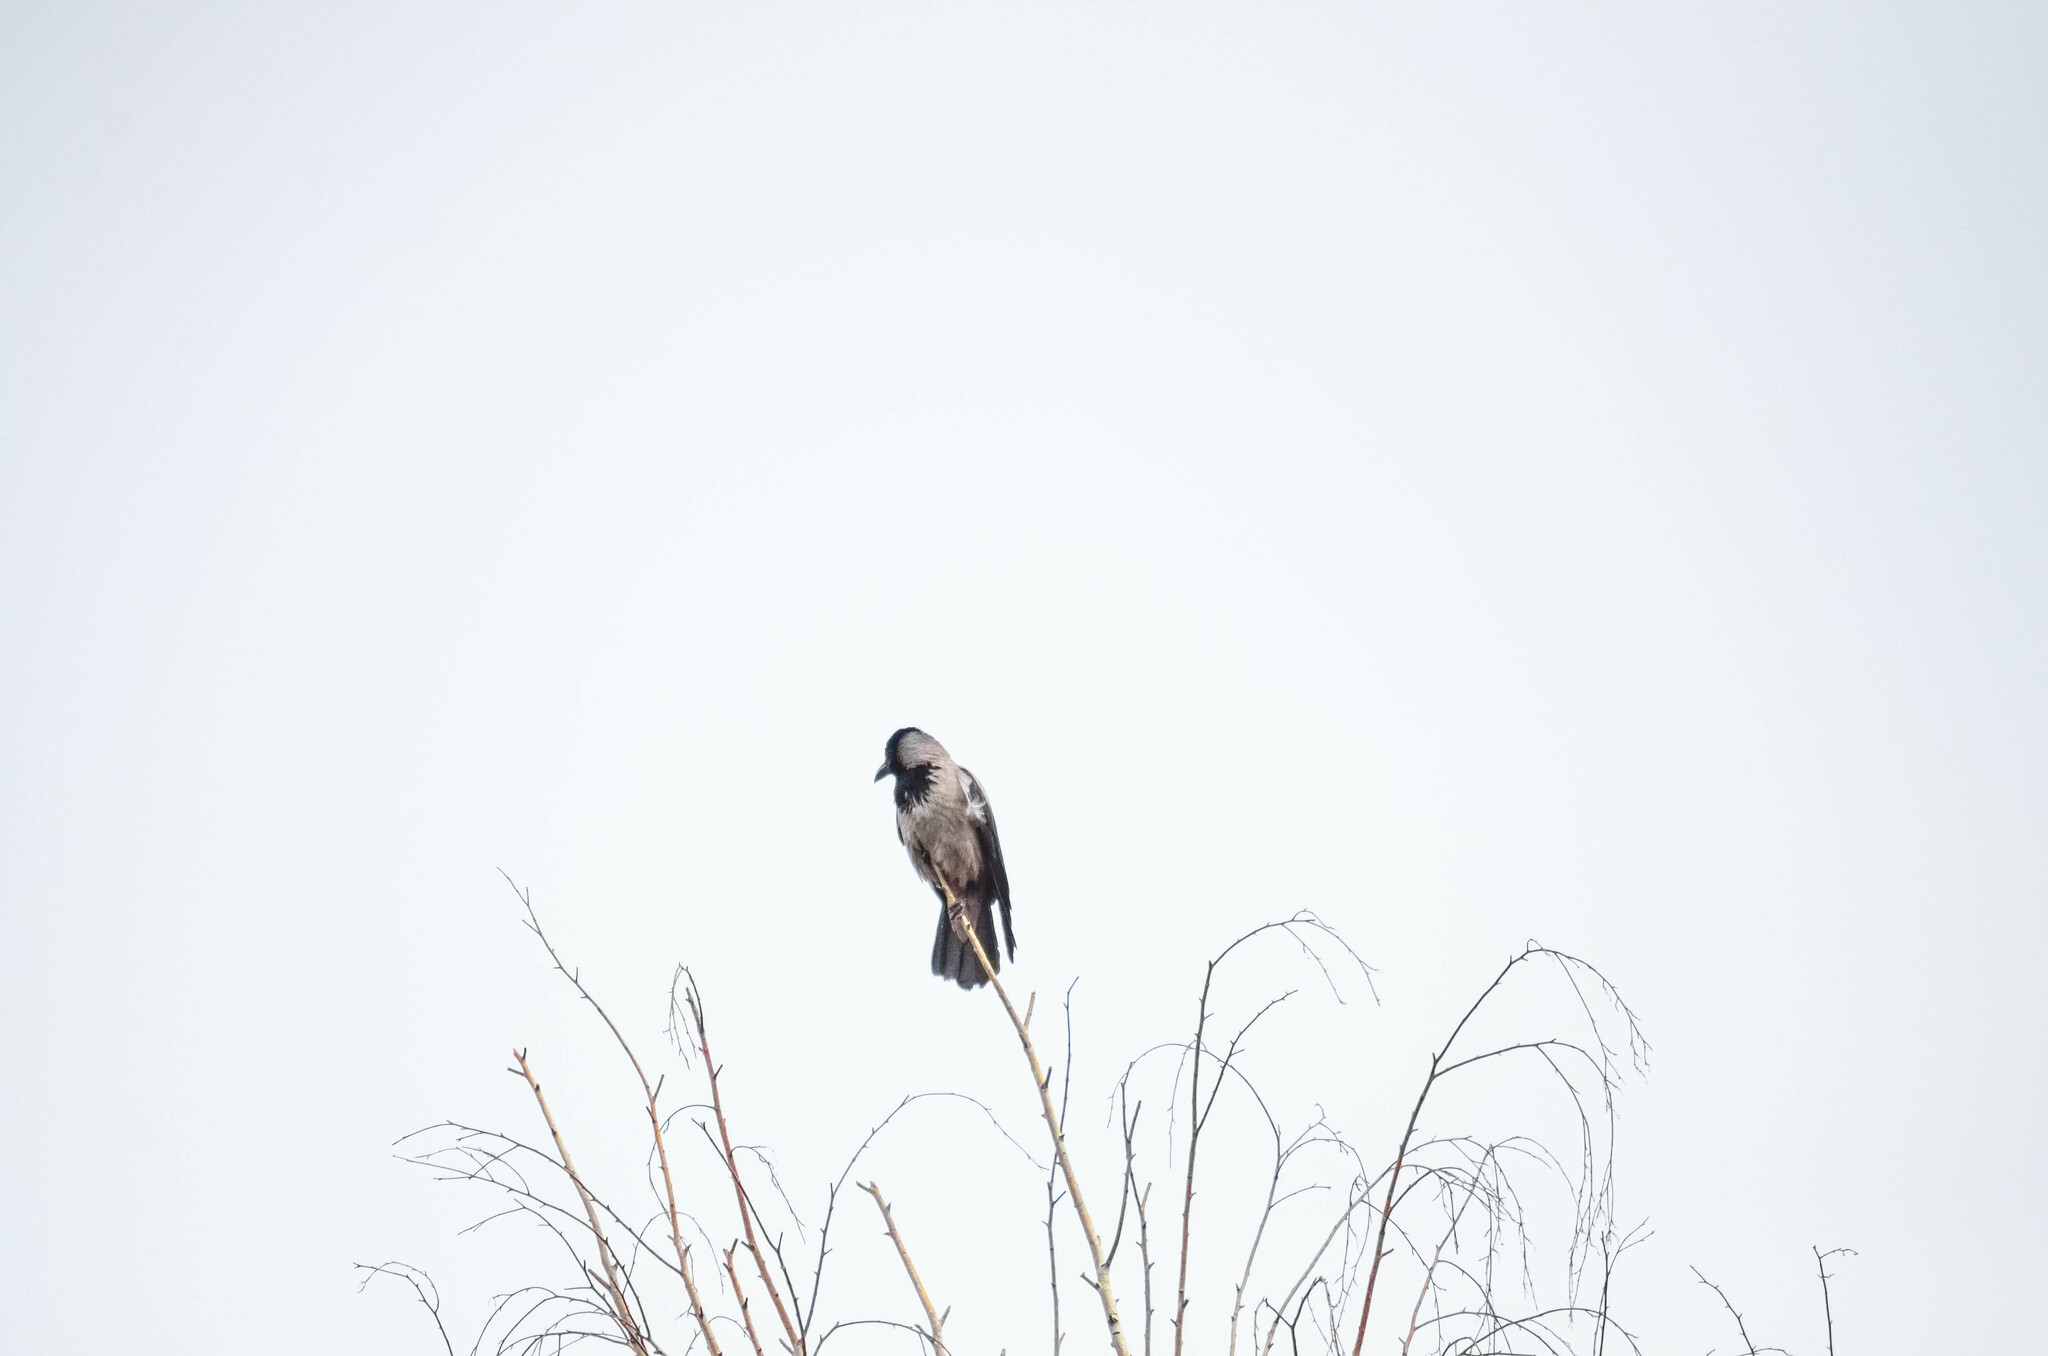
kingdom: Animalia
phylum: Chordata
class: Aves
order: Passeriformes
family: Corvidae
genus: Corvus
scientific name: Corvus cornix
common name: Hooded crow
